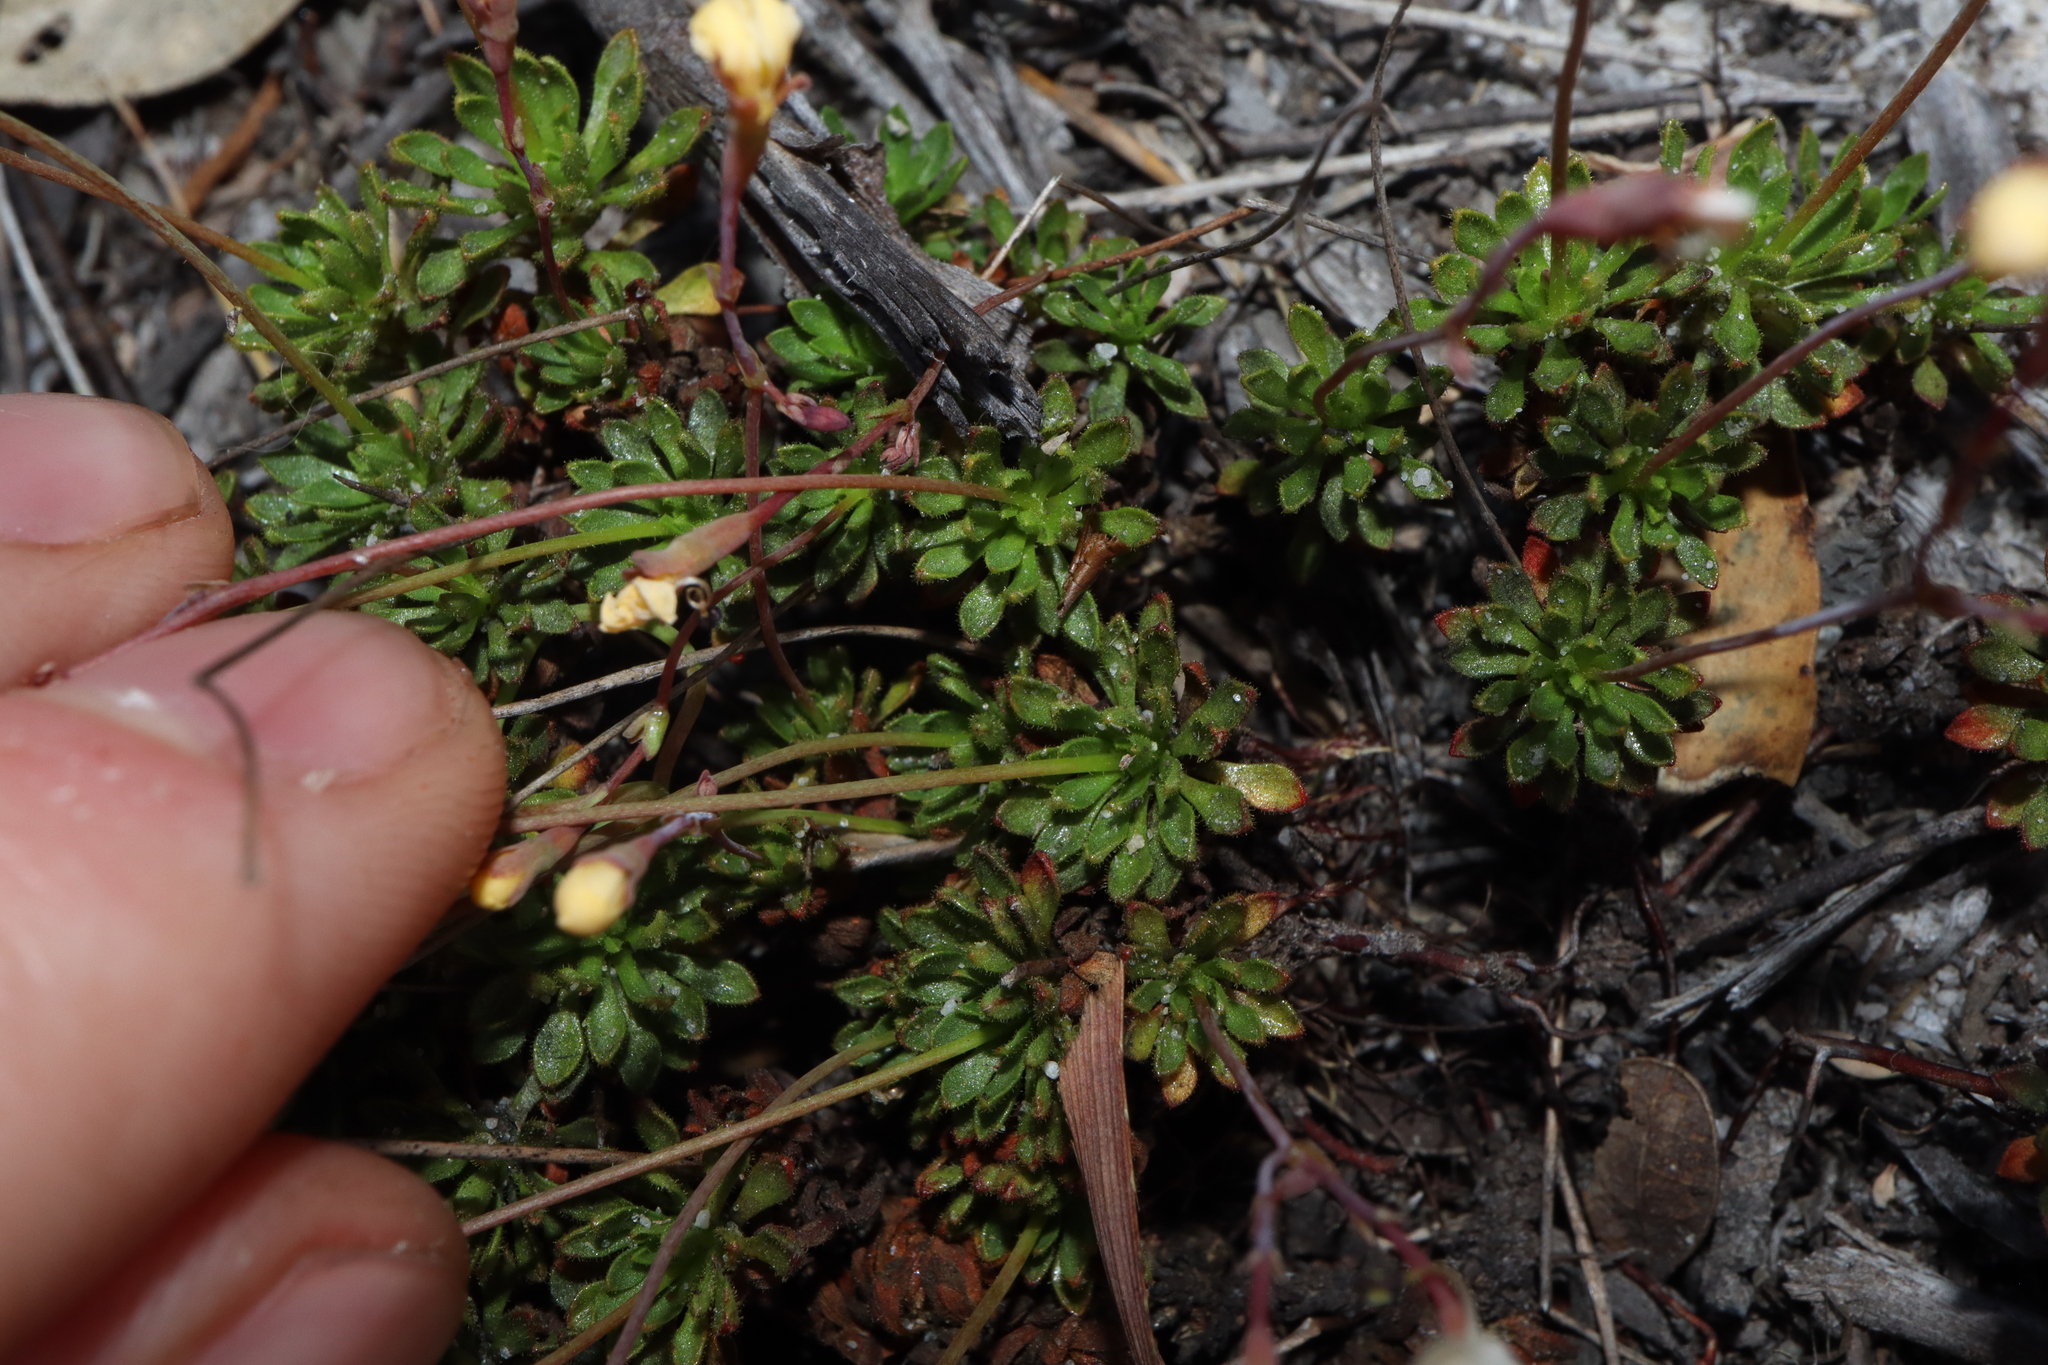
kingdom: Plantae
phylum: Tracheophyta
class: Magnoliopsida
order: Asterales
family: Stylidiaceae
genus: Stylidium
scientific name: Stylidium rupestre
